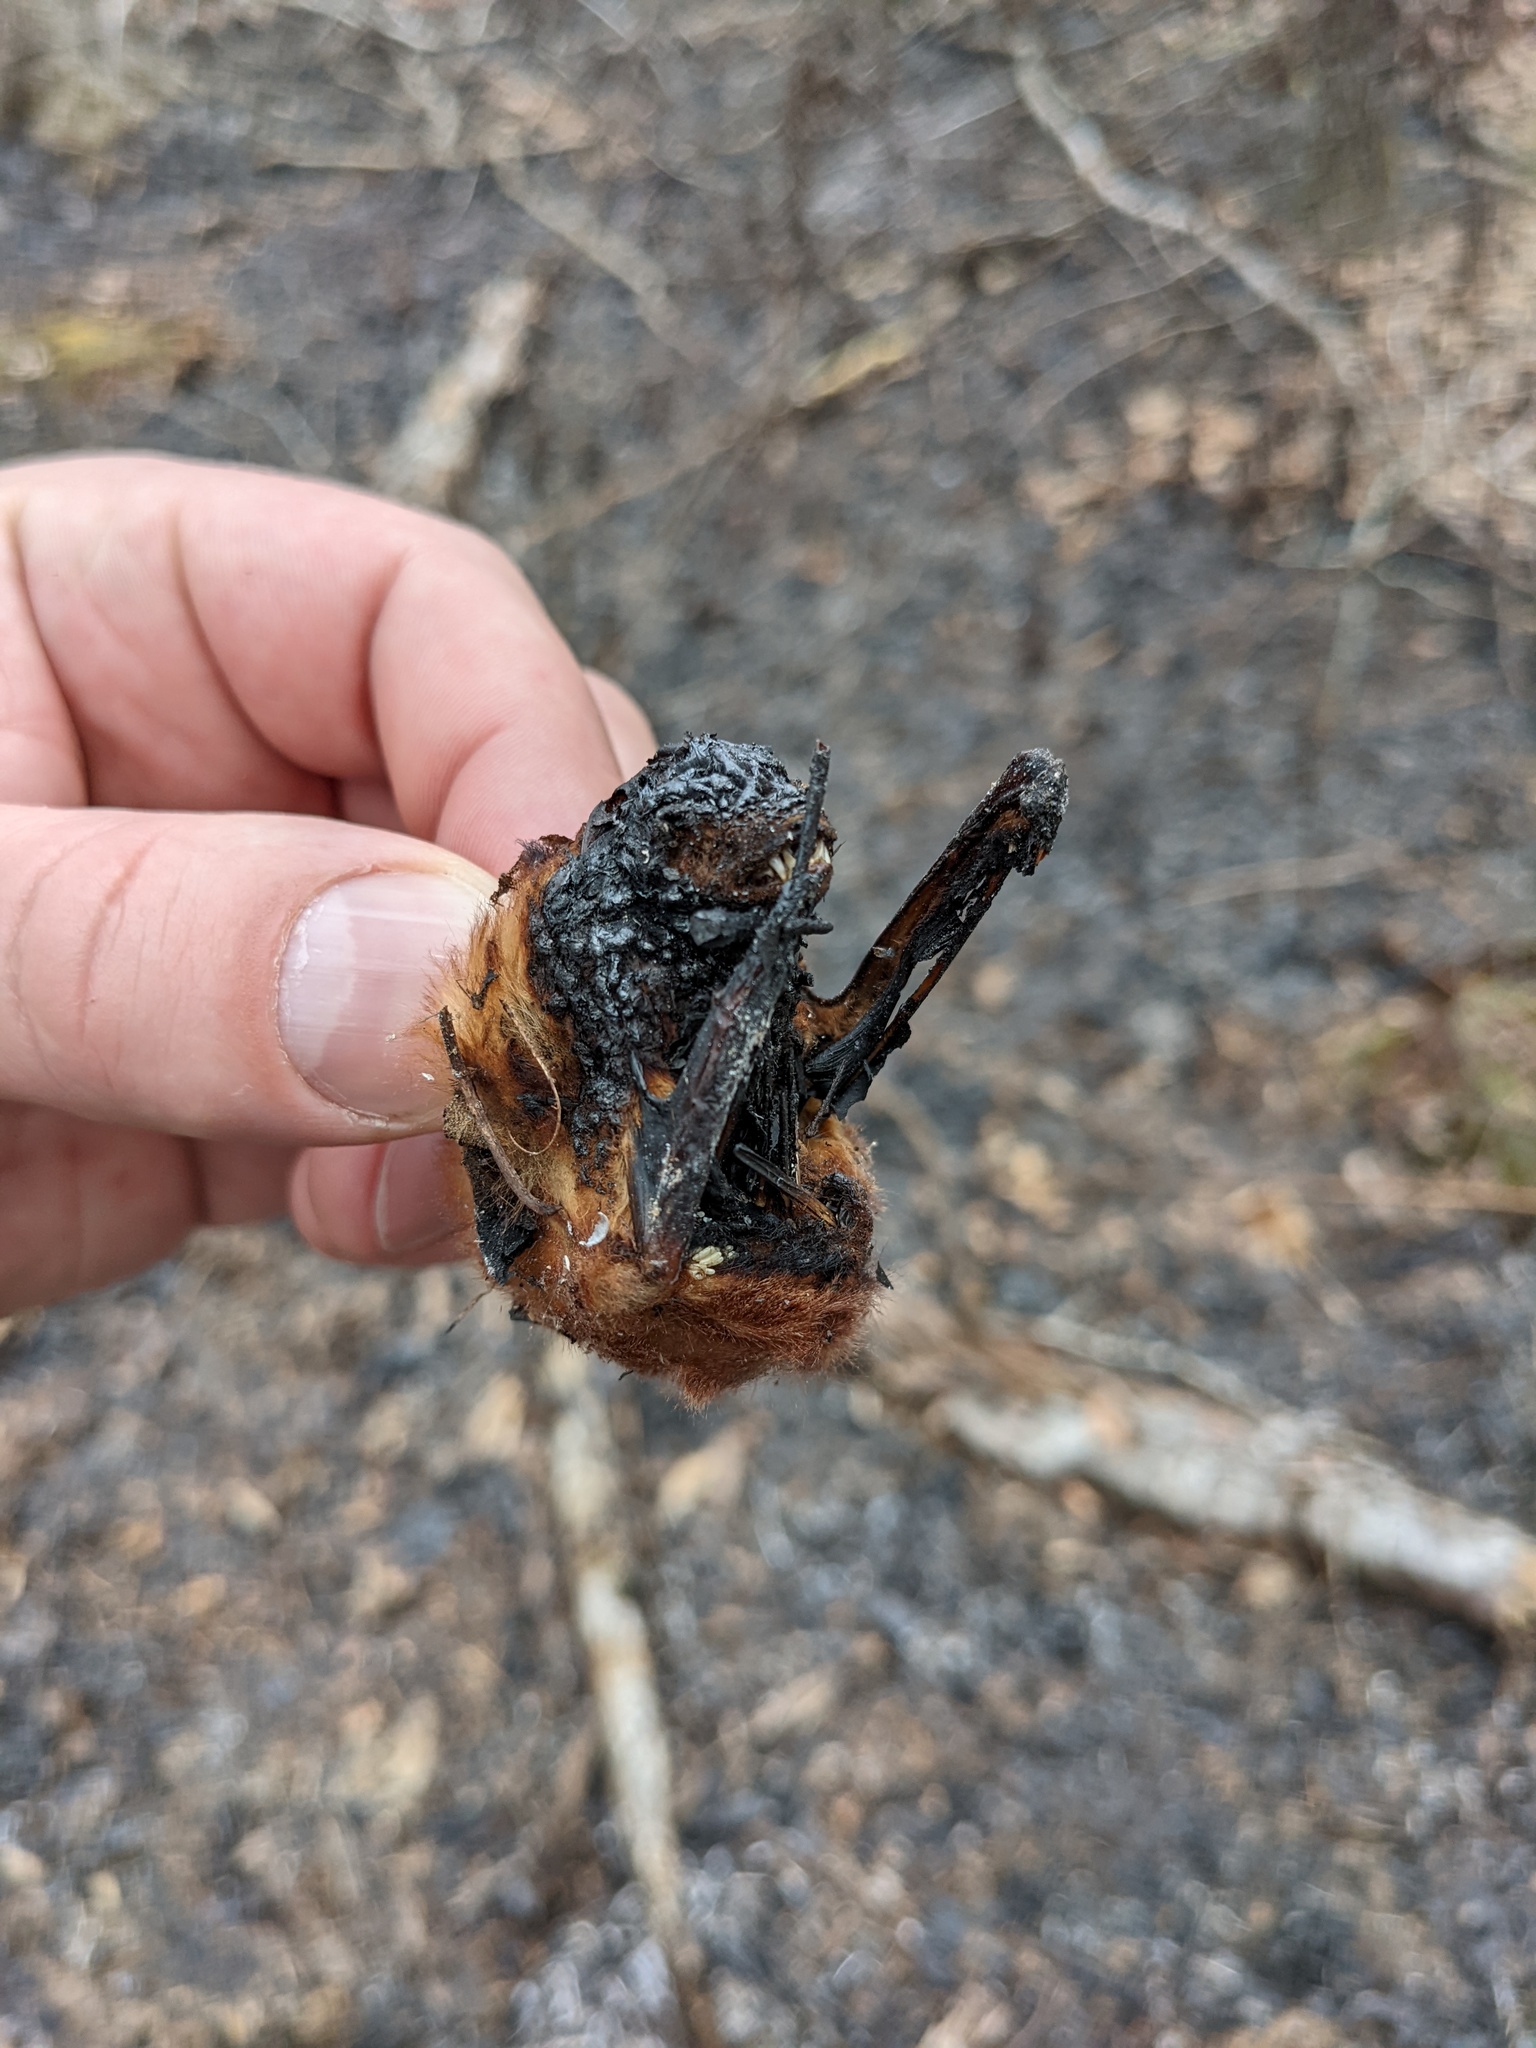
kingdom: Animalia
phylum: Chordata
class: Mammalia
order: Chiroptera
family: Vespertilionidae
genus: Lasiurus
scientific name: Lasiurus borealis
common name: Eastern red bat
